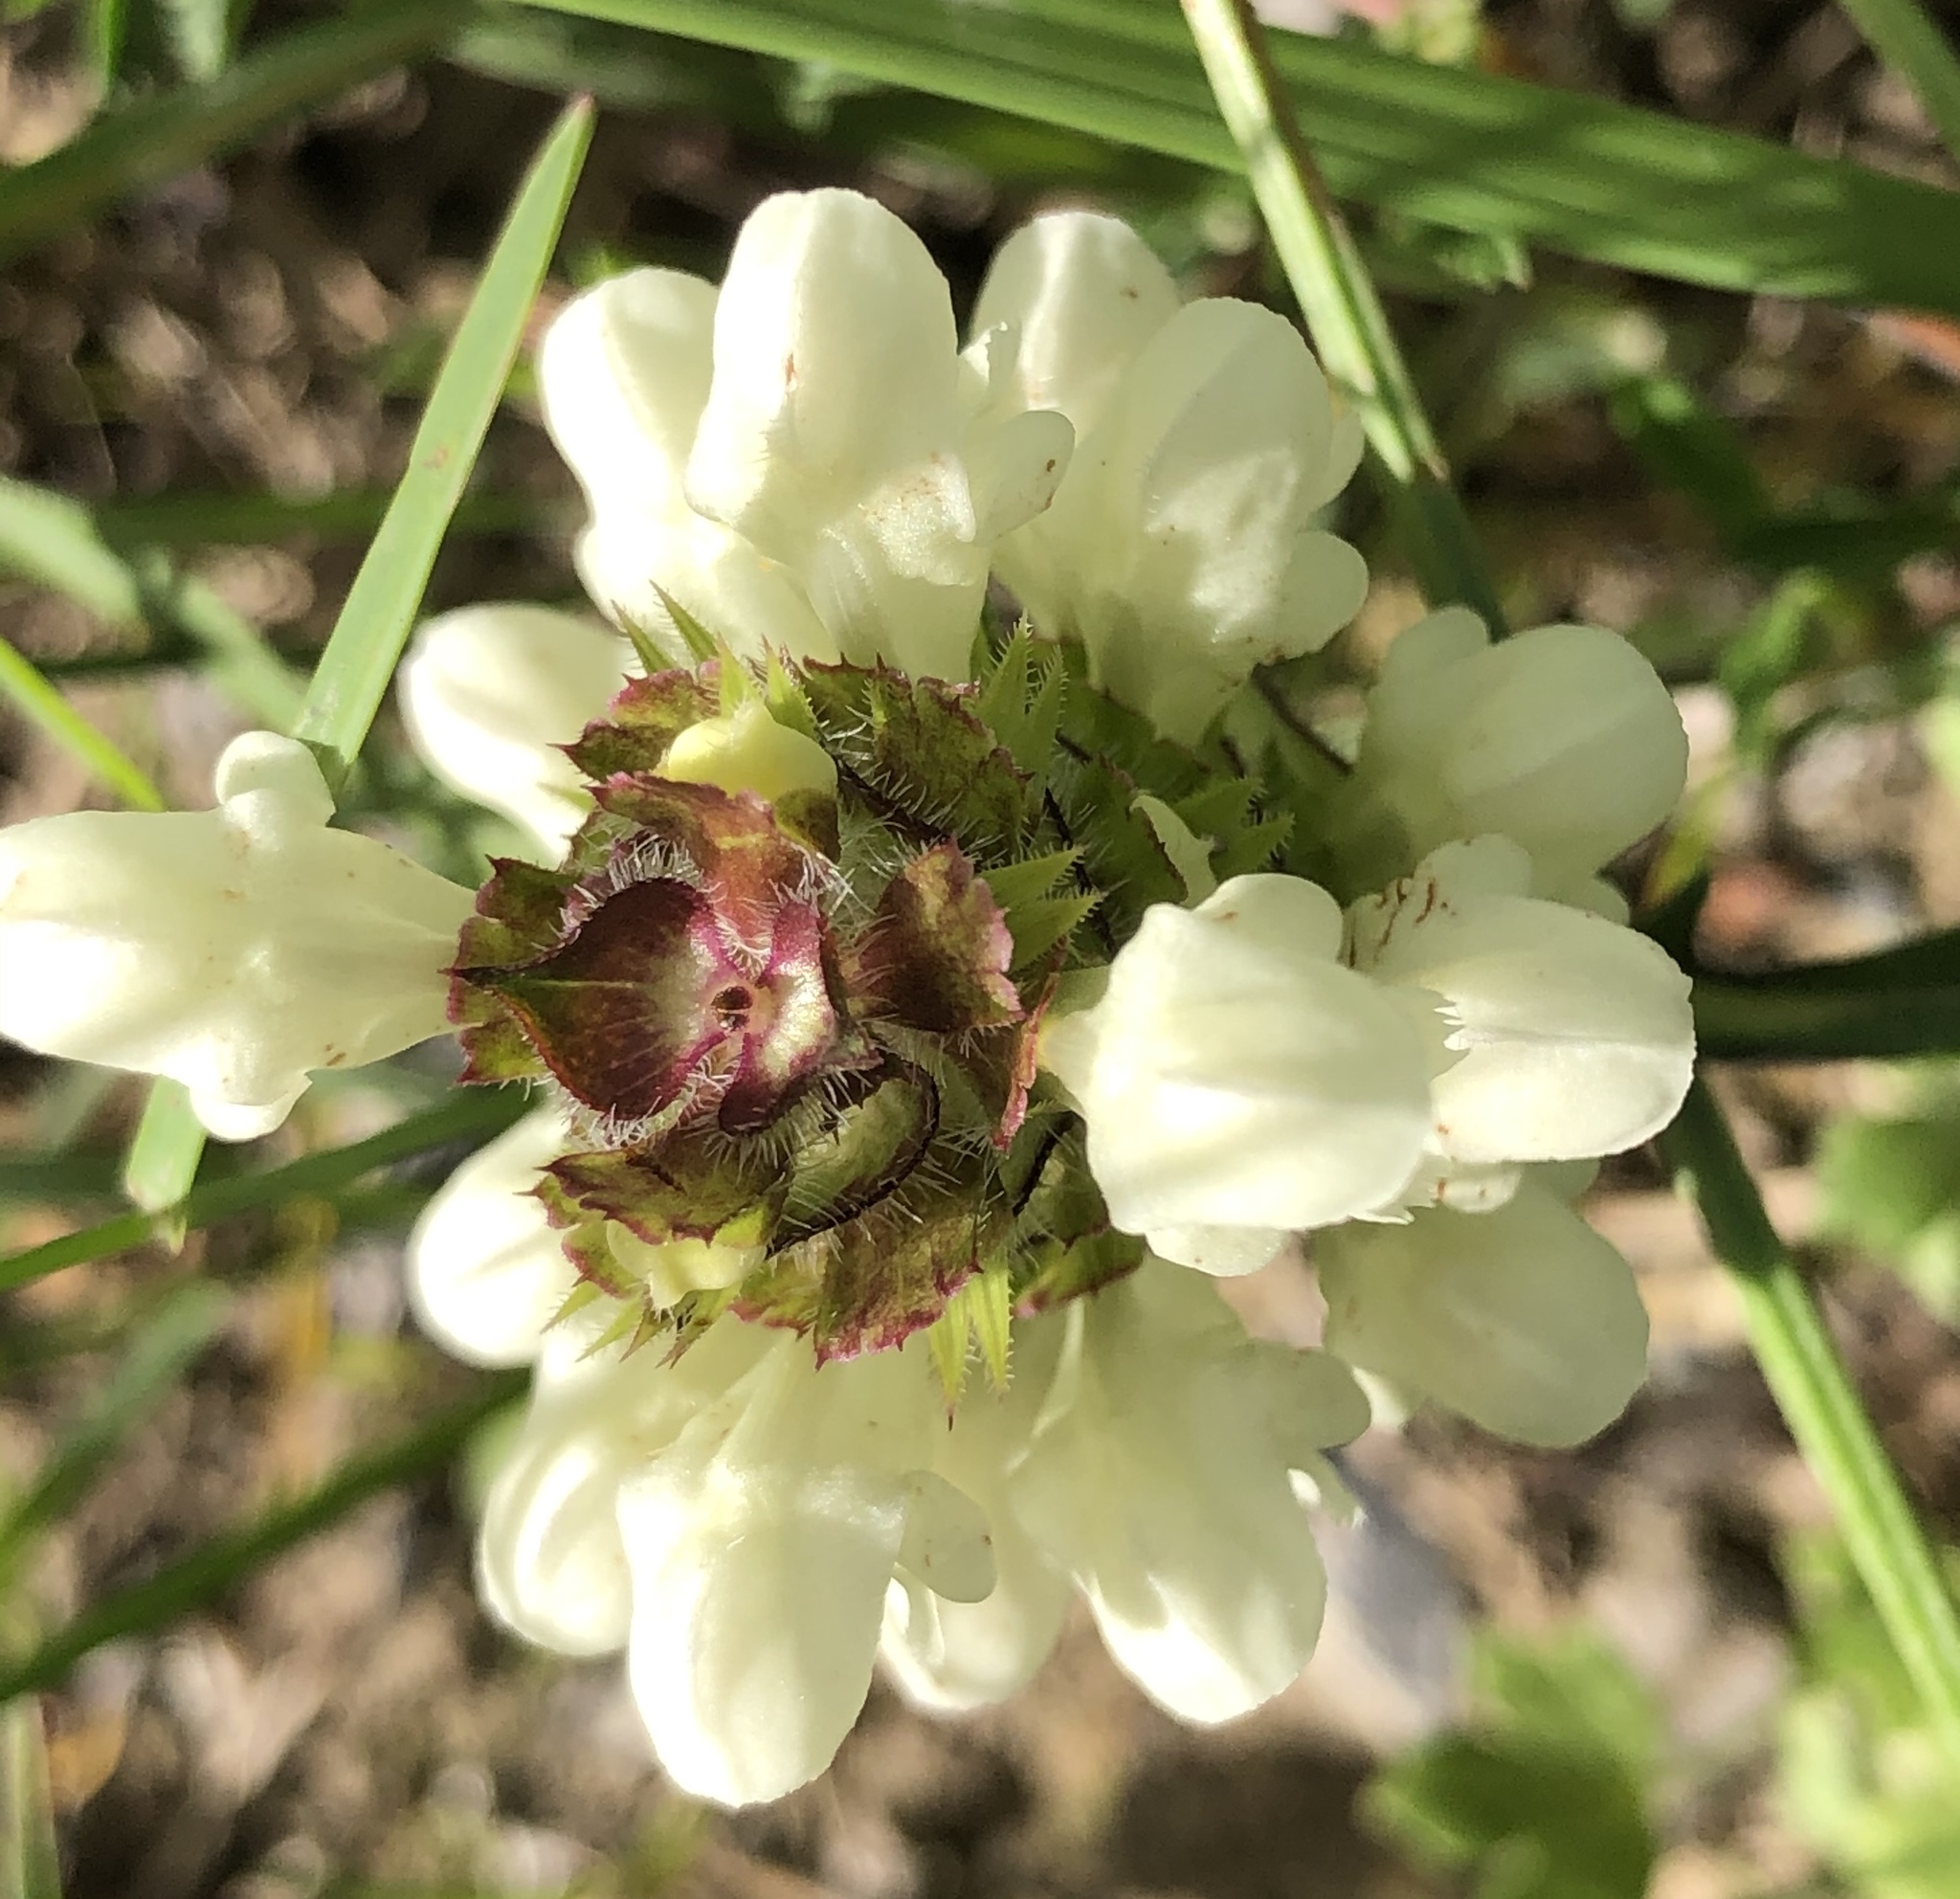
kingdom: Plantae
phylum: Tracheophyta
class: Magnoliopsida
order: Lamiales
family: Lamiaceae
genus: Prunella
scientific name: Prunella laciniata
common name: Cut-leaved selfheal
